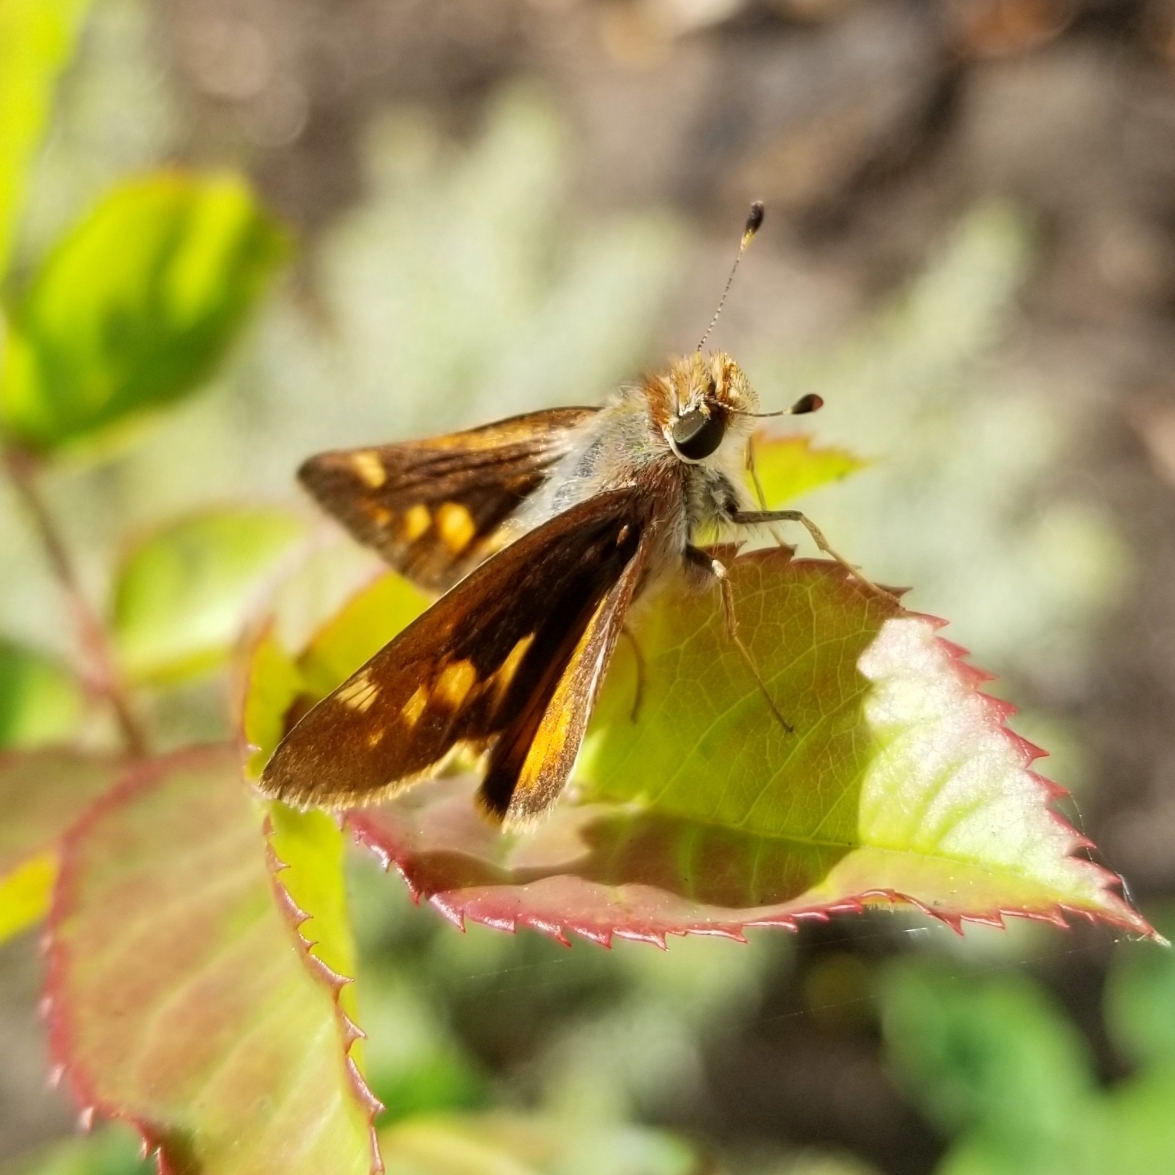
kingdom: Animalia
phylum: Arthropoda
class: Insecta
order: Lepidoptera
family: Hesperiidae
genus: Lon
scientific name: Lon melane
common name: Umber skipper
